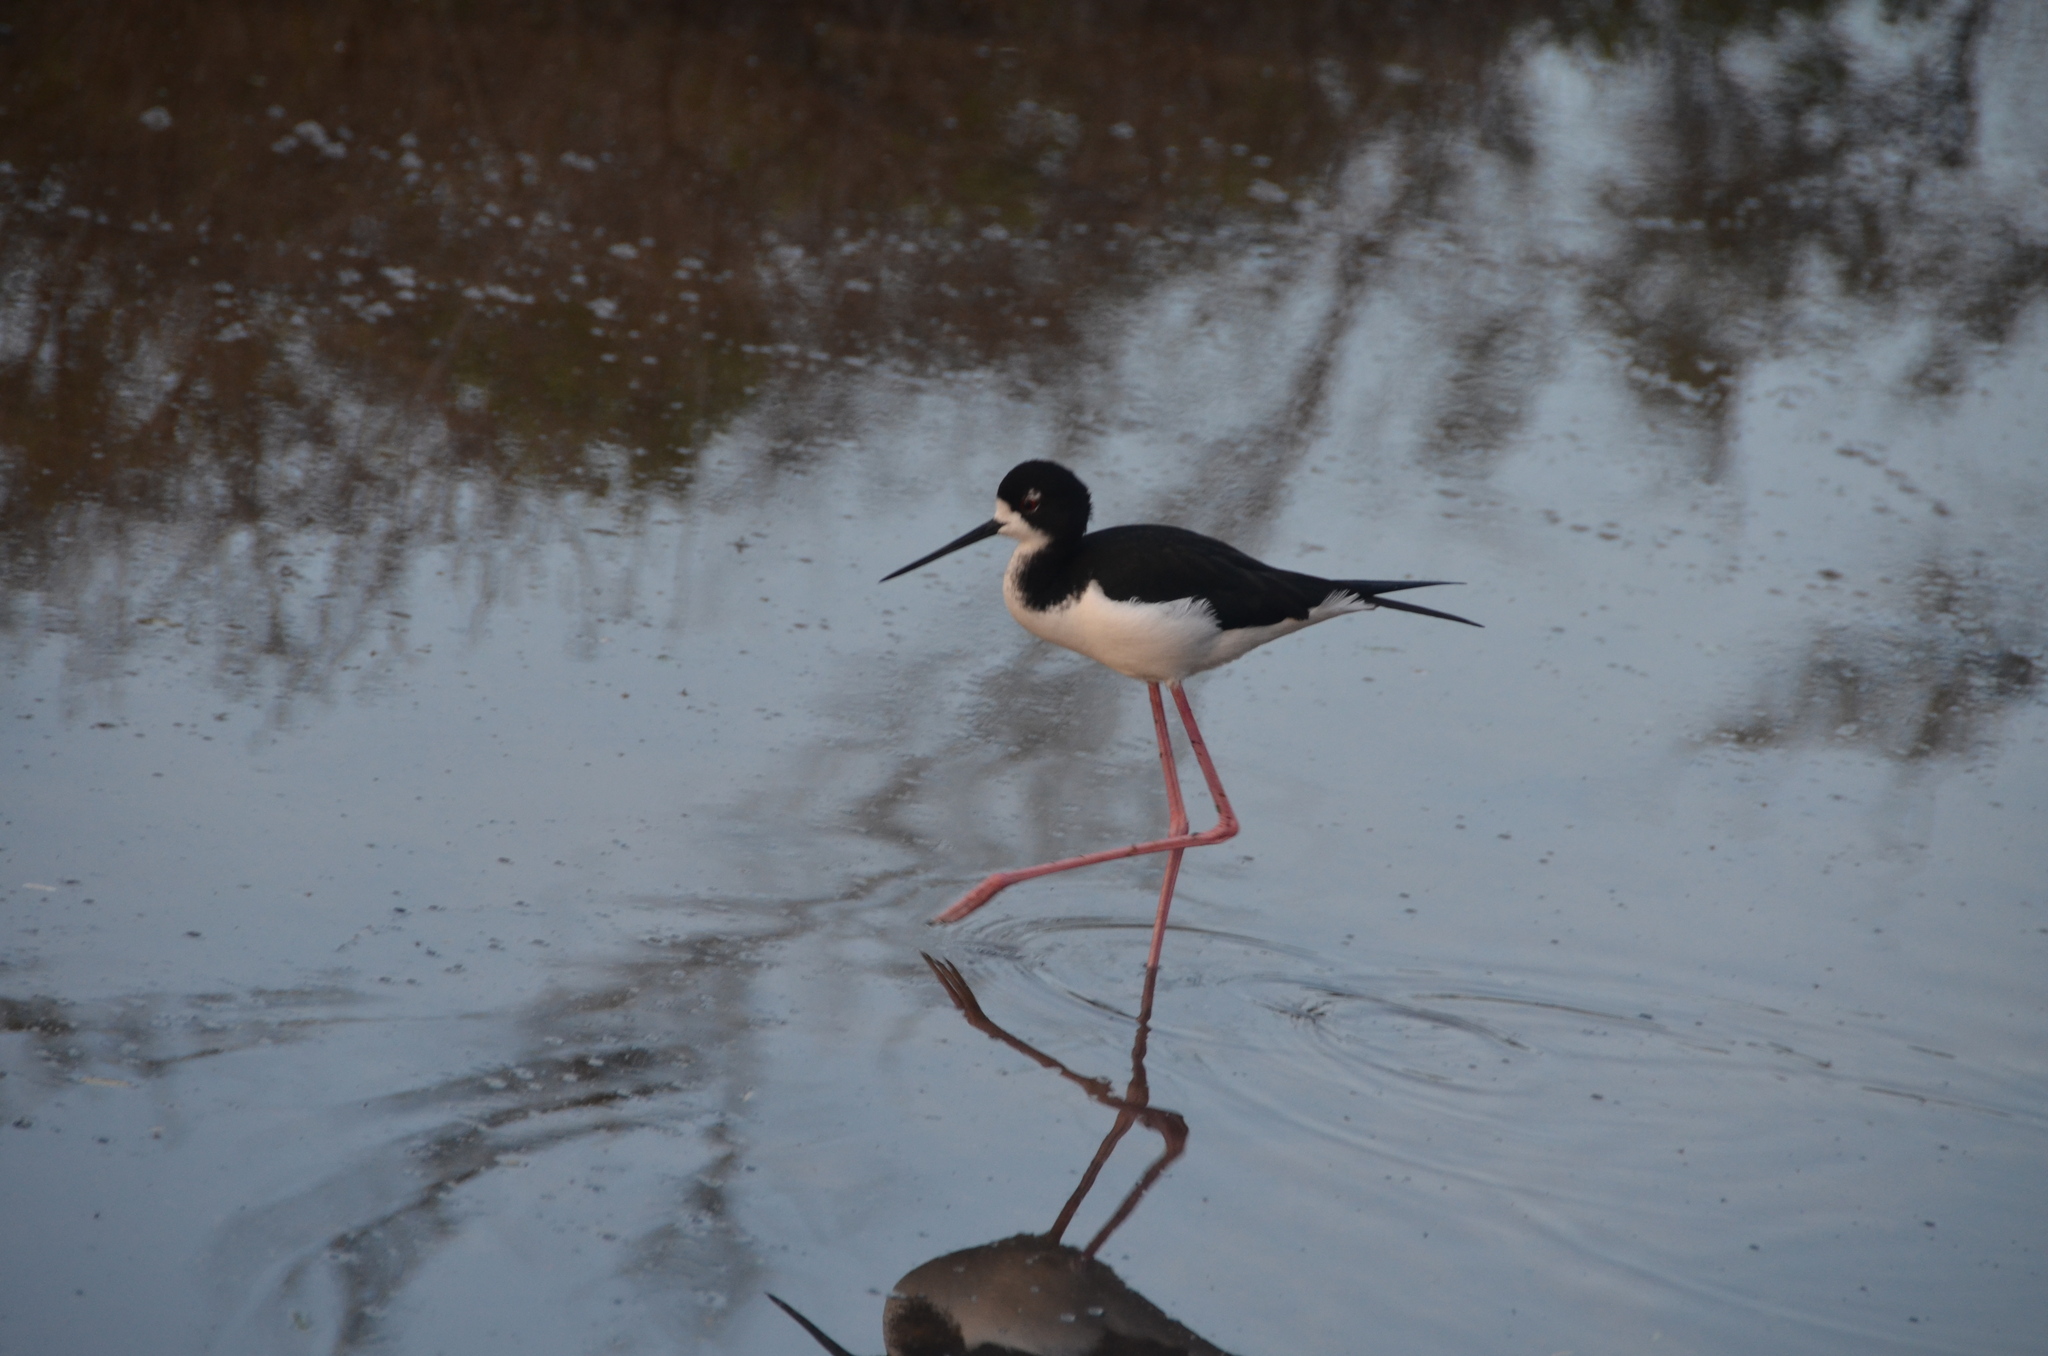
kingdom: Animalia
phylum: Chordata
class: Aves
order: Charadriiformes
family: Recurvirostridae
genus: Himantopus
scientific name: Himantopus mexicanus
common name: Black-necked stilt
